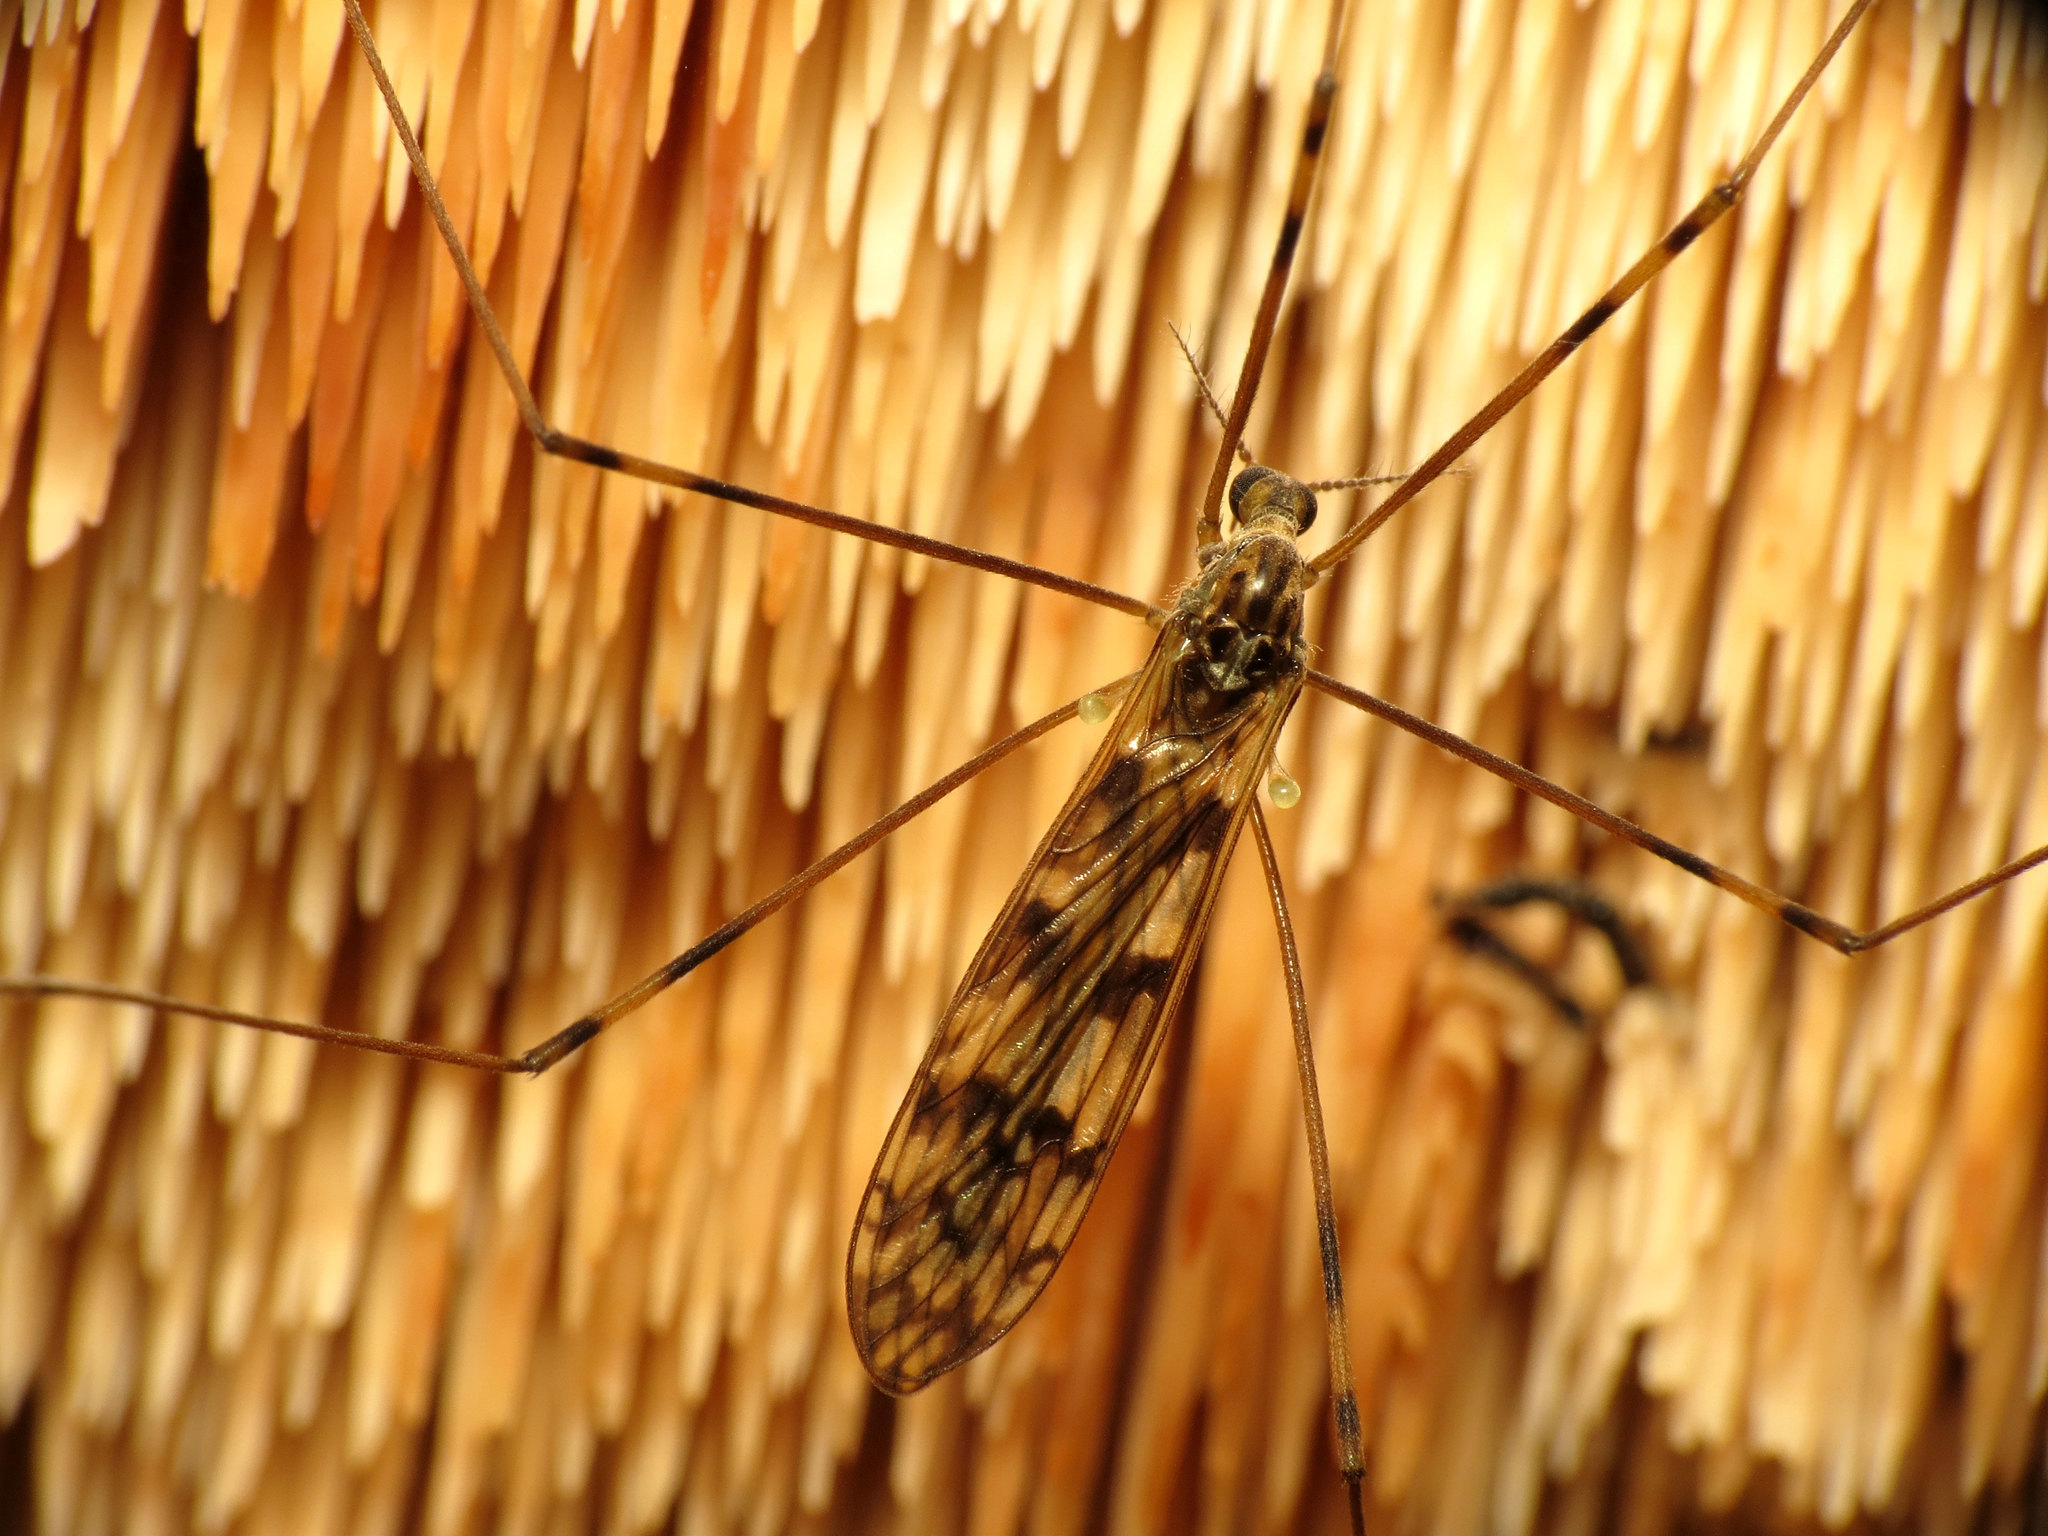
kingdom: Animalia
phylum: Arthropoda
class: Insecta
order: Diptera
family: Limoniidae
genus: Limonia
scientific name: Limonia cinctipes
